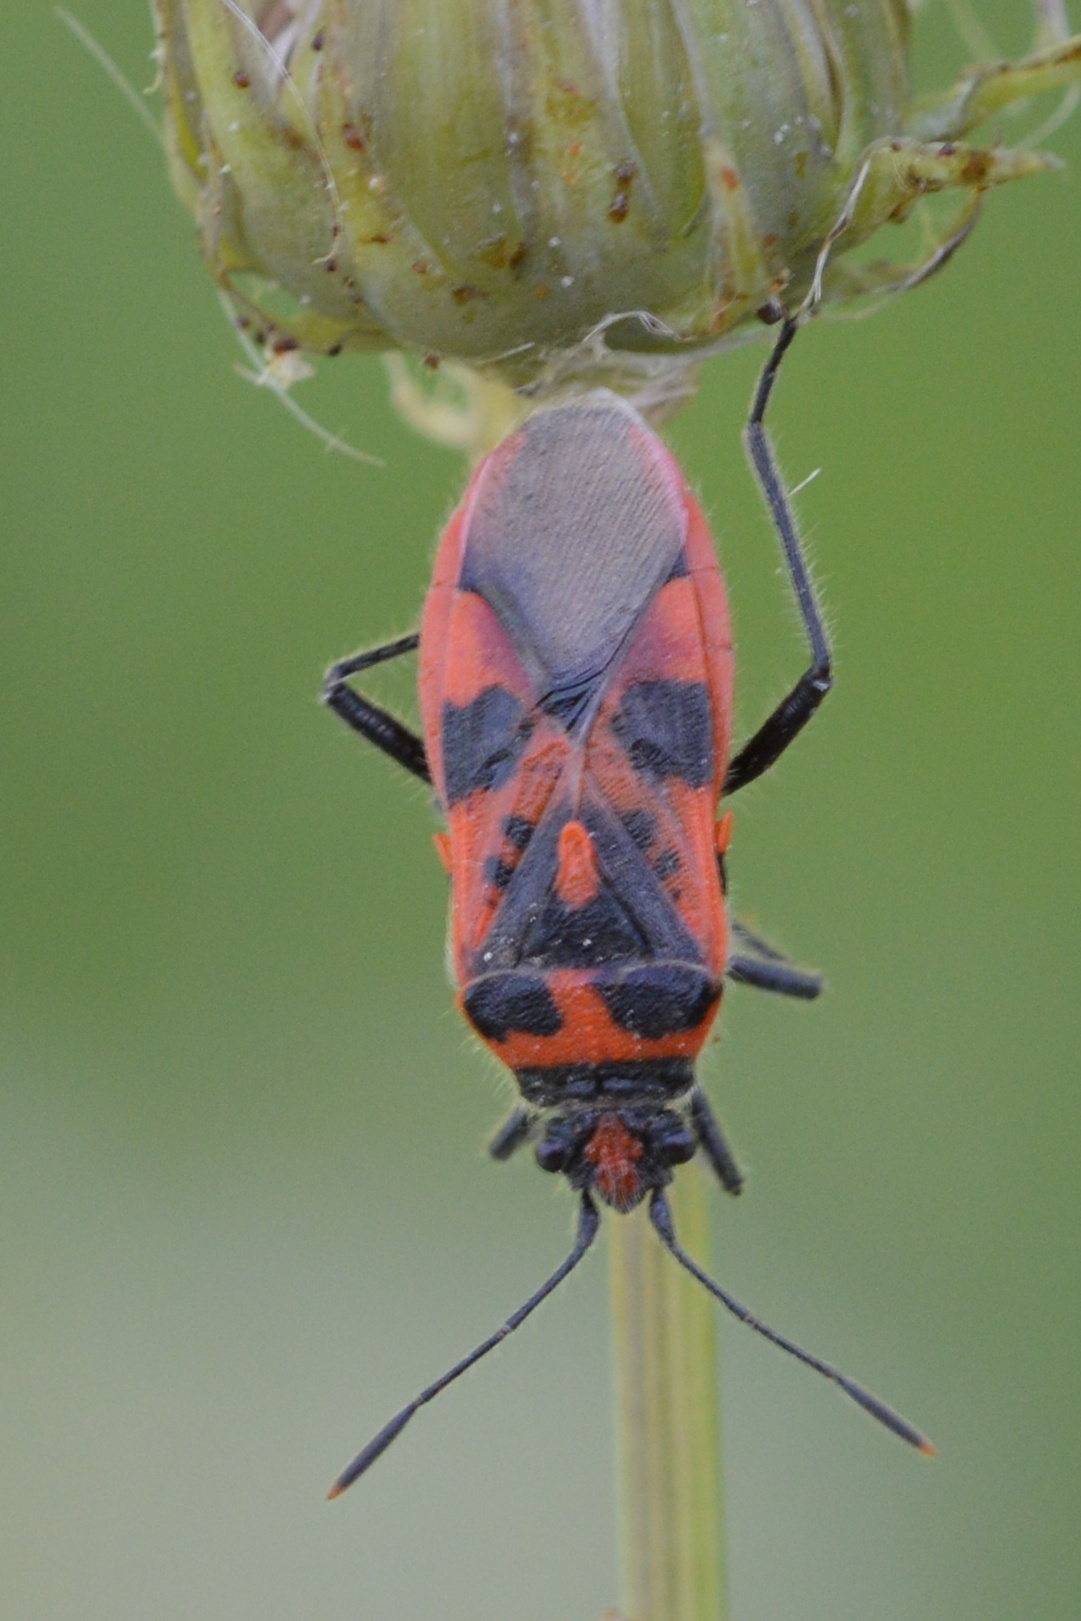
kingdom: Animalia
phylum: Arthropoda
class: Insecta
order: Hemiptera
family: Rhopalidae
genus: Corizus
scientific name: Corizus hyoscyami
